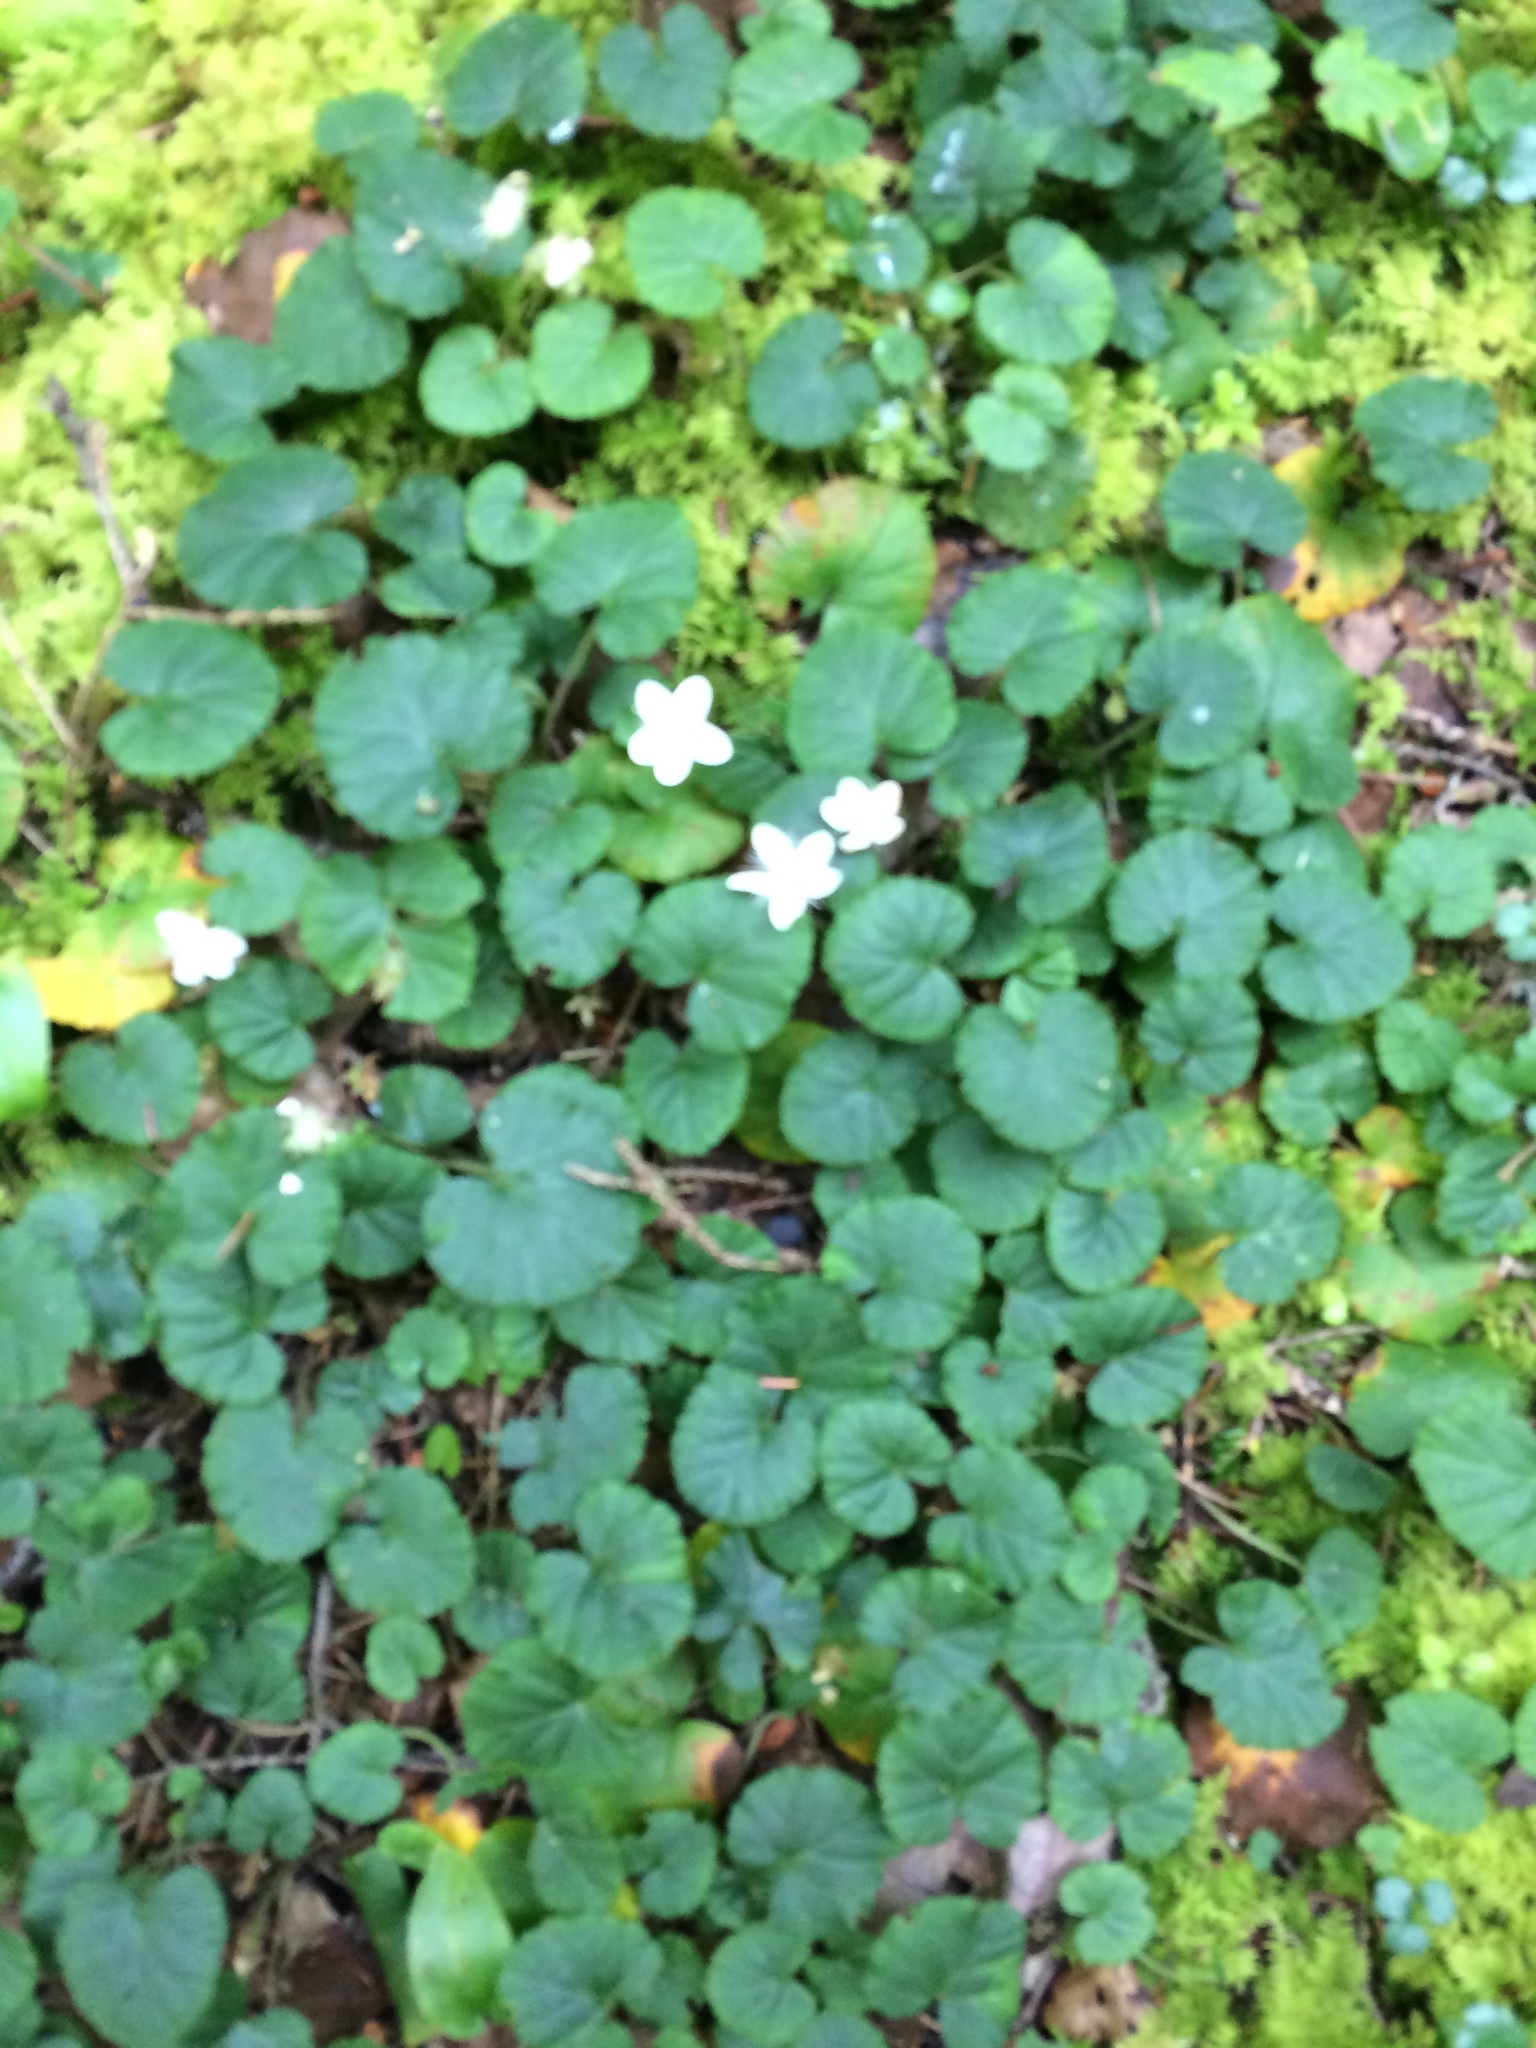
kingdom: Plantae
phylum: Tracheophyta
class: Magnoliopsida
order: Rosales
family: Rosaceae
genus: Dalibarda
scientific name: Dalibarda repens
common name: Dewdrop
